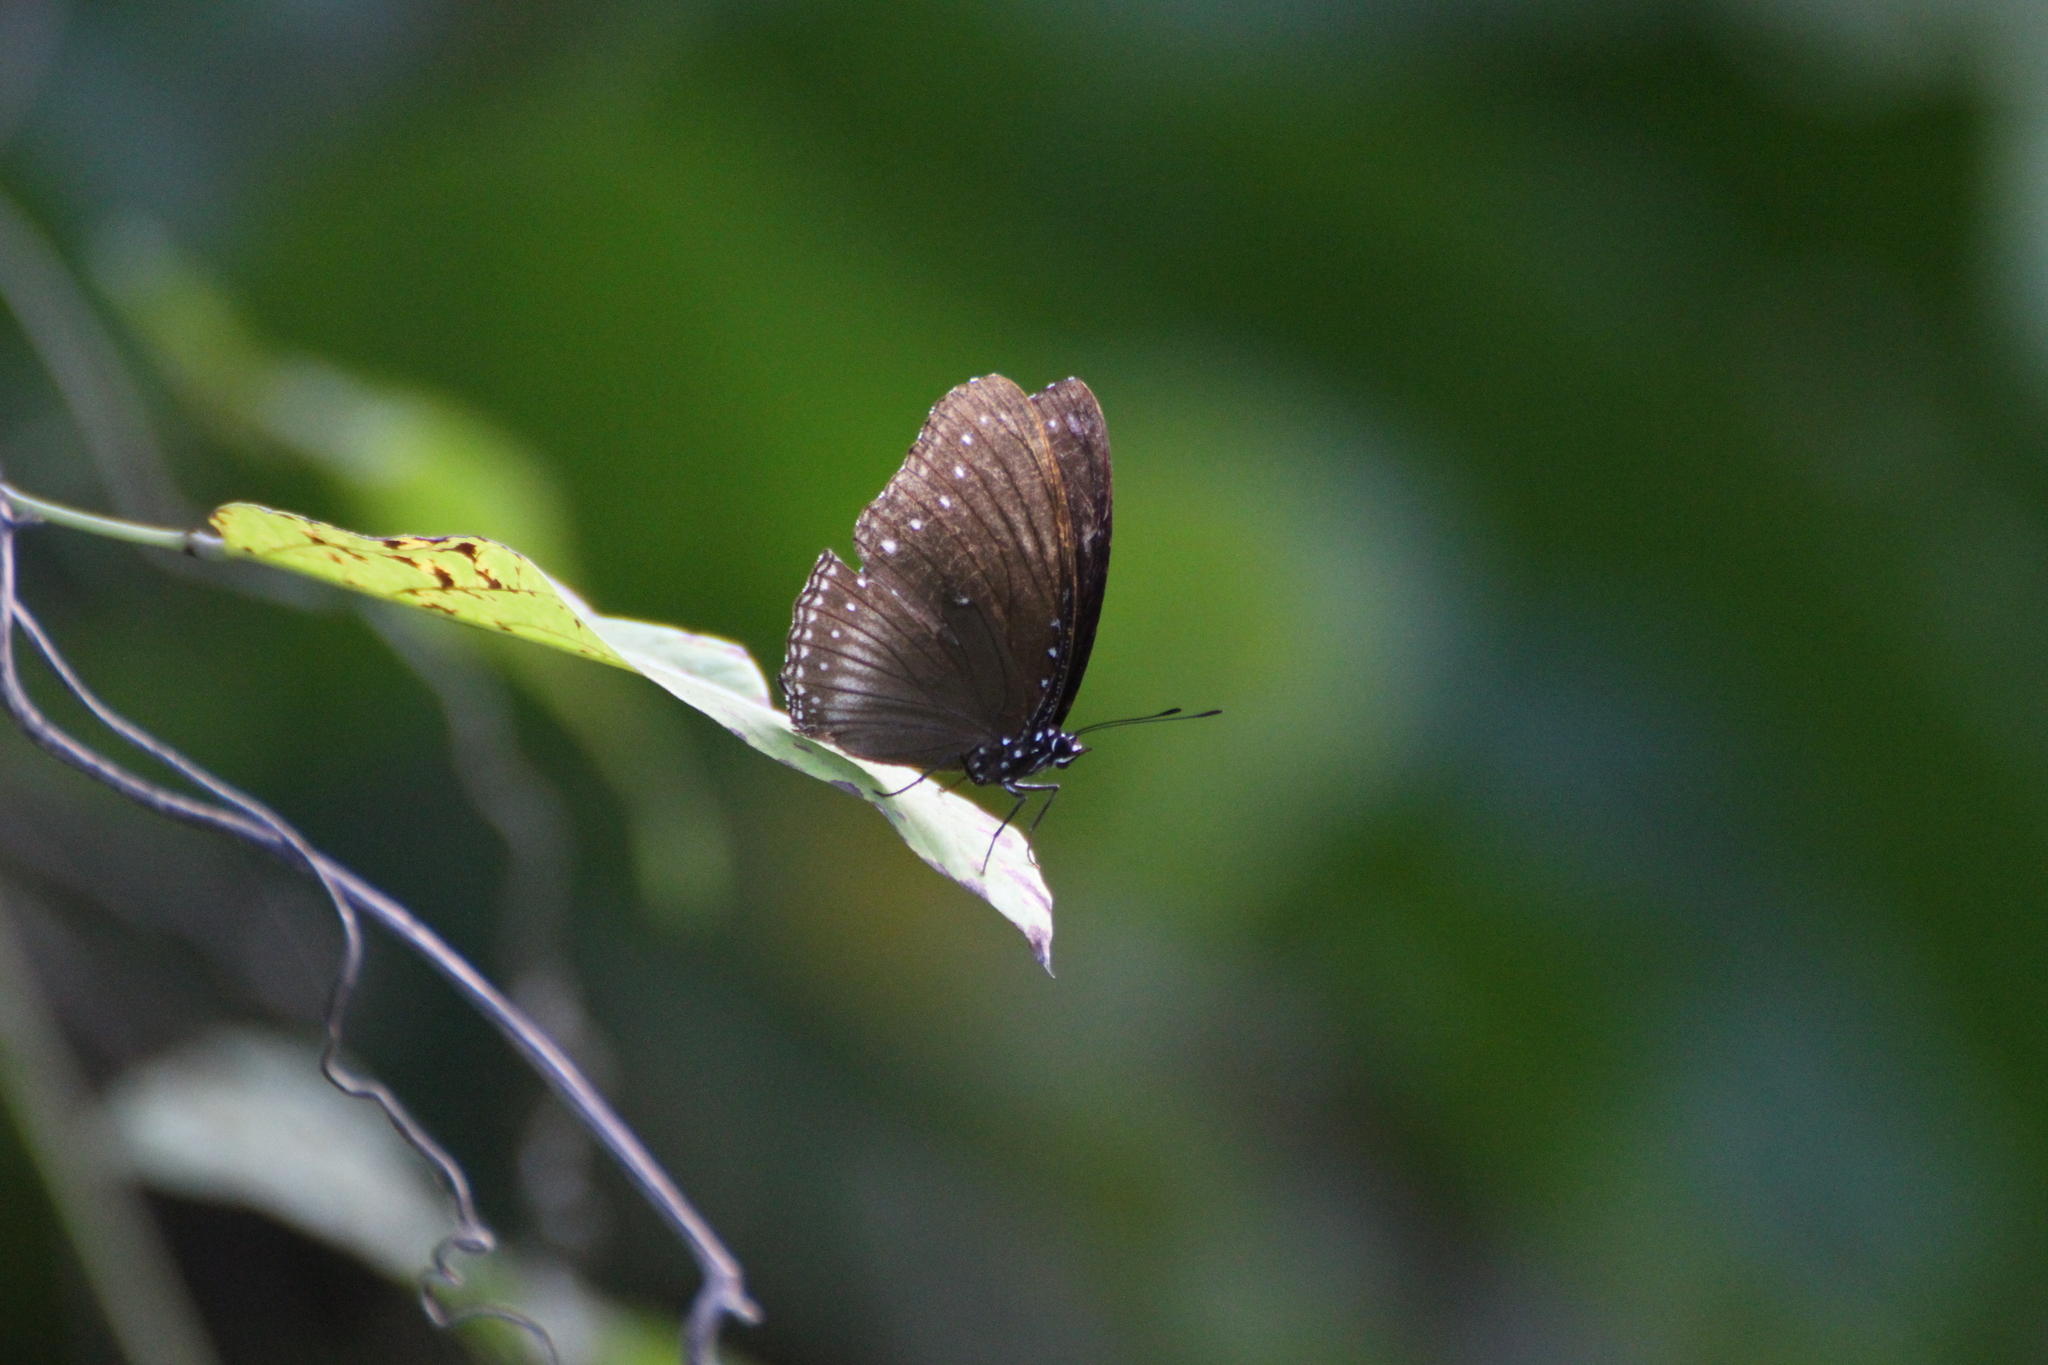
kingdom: Animalia
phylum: Arthropoda
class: Insecta
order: Lepidoptera
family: Nymphalidae
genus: Hypolimnas
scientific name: Hypolimnas anomala
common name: Malayan eggfly
